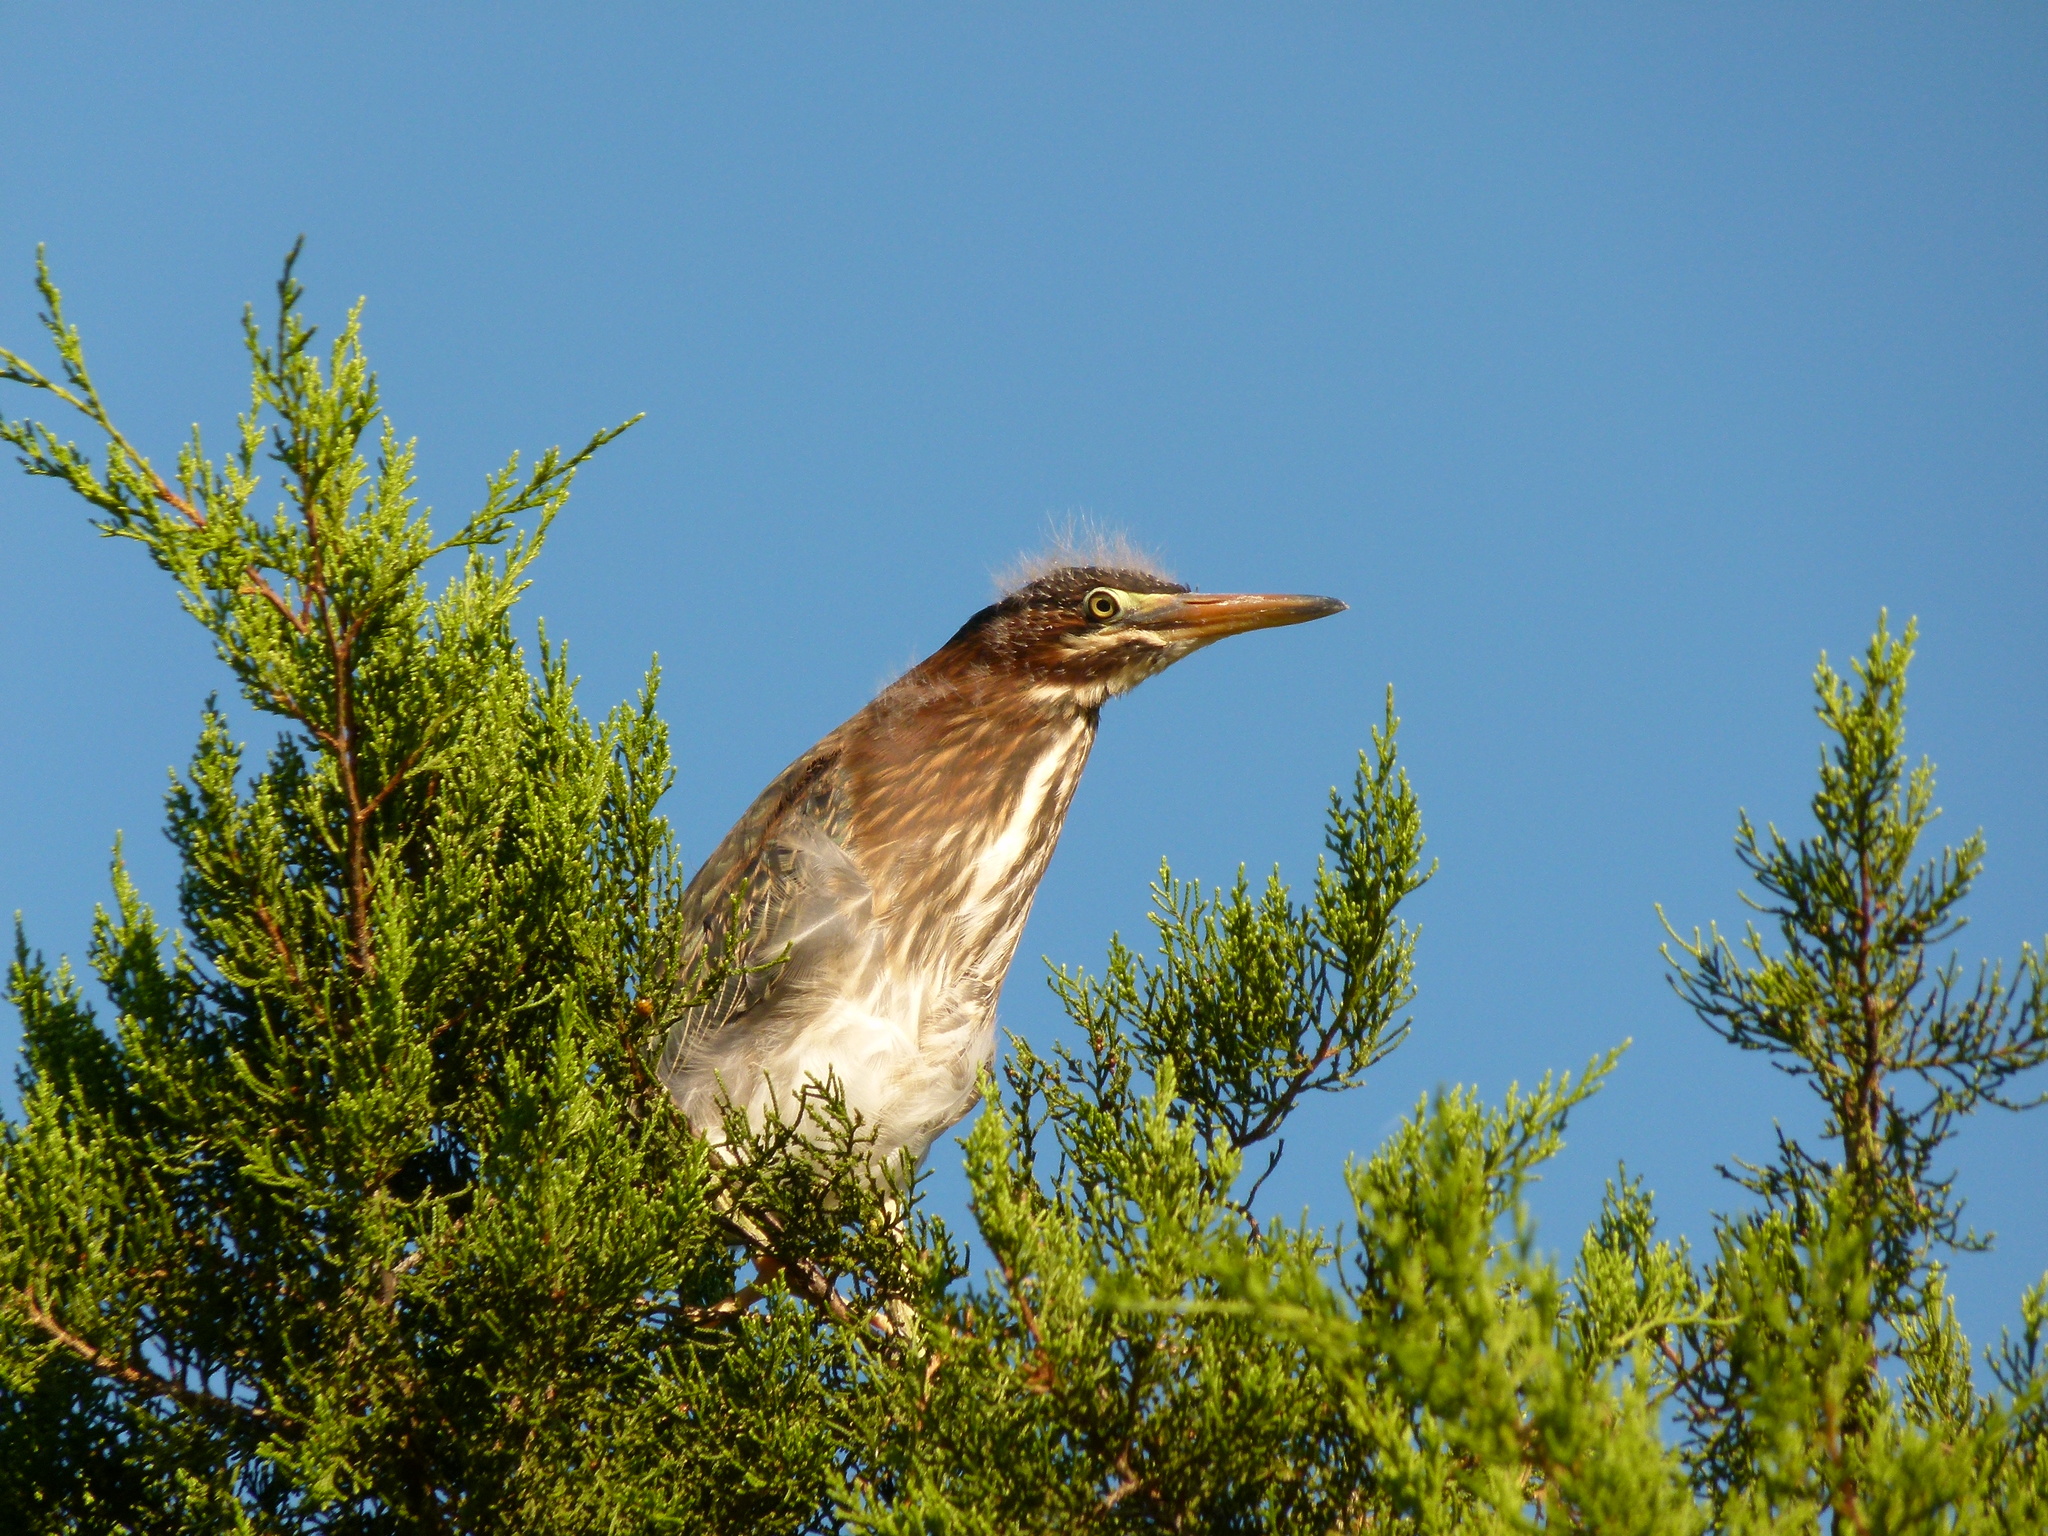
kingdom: Animalia
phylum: Chordata
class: Aves
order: Pelecaniformes
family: Ardeidae
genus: Butorides
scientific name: Butorides virescens
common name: Green heron
